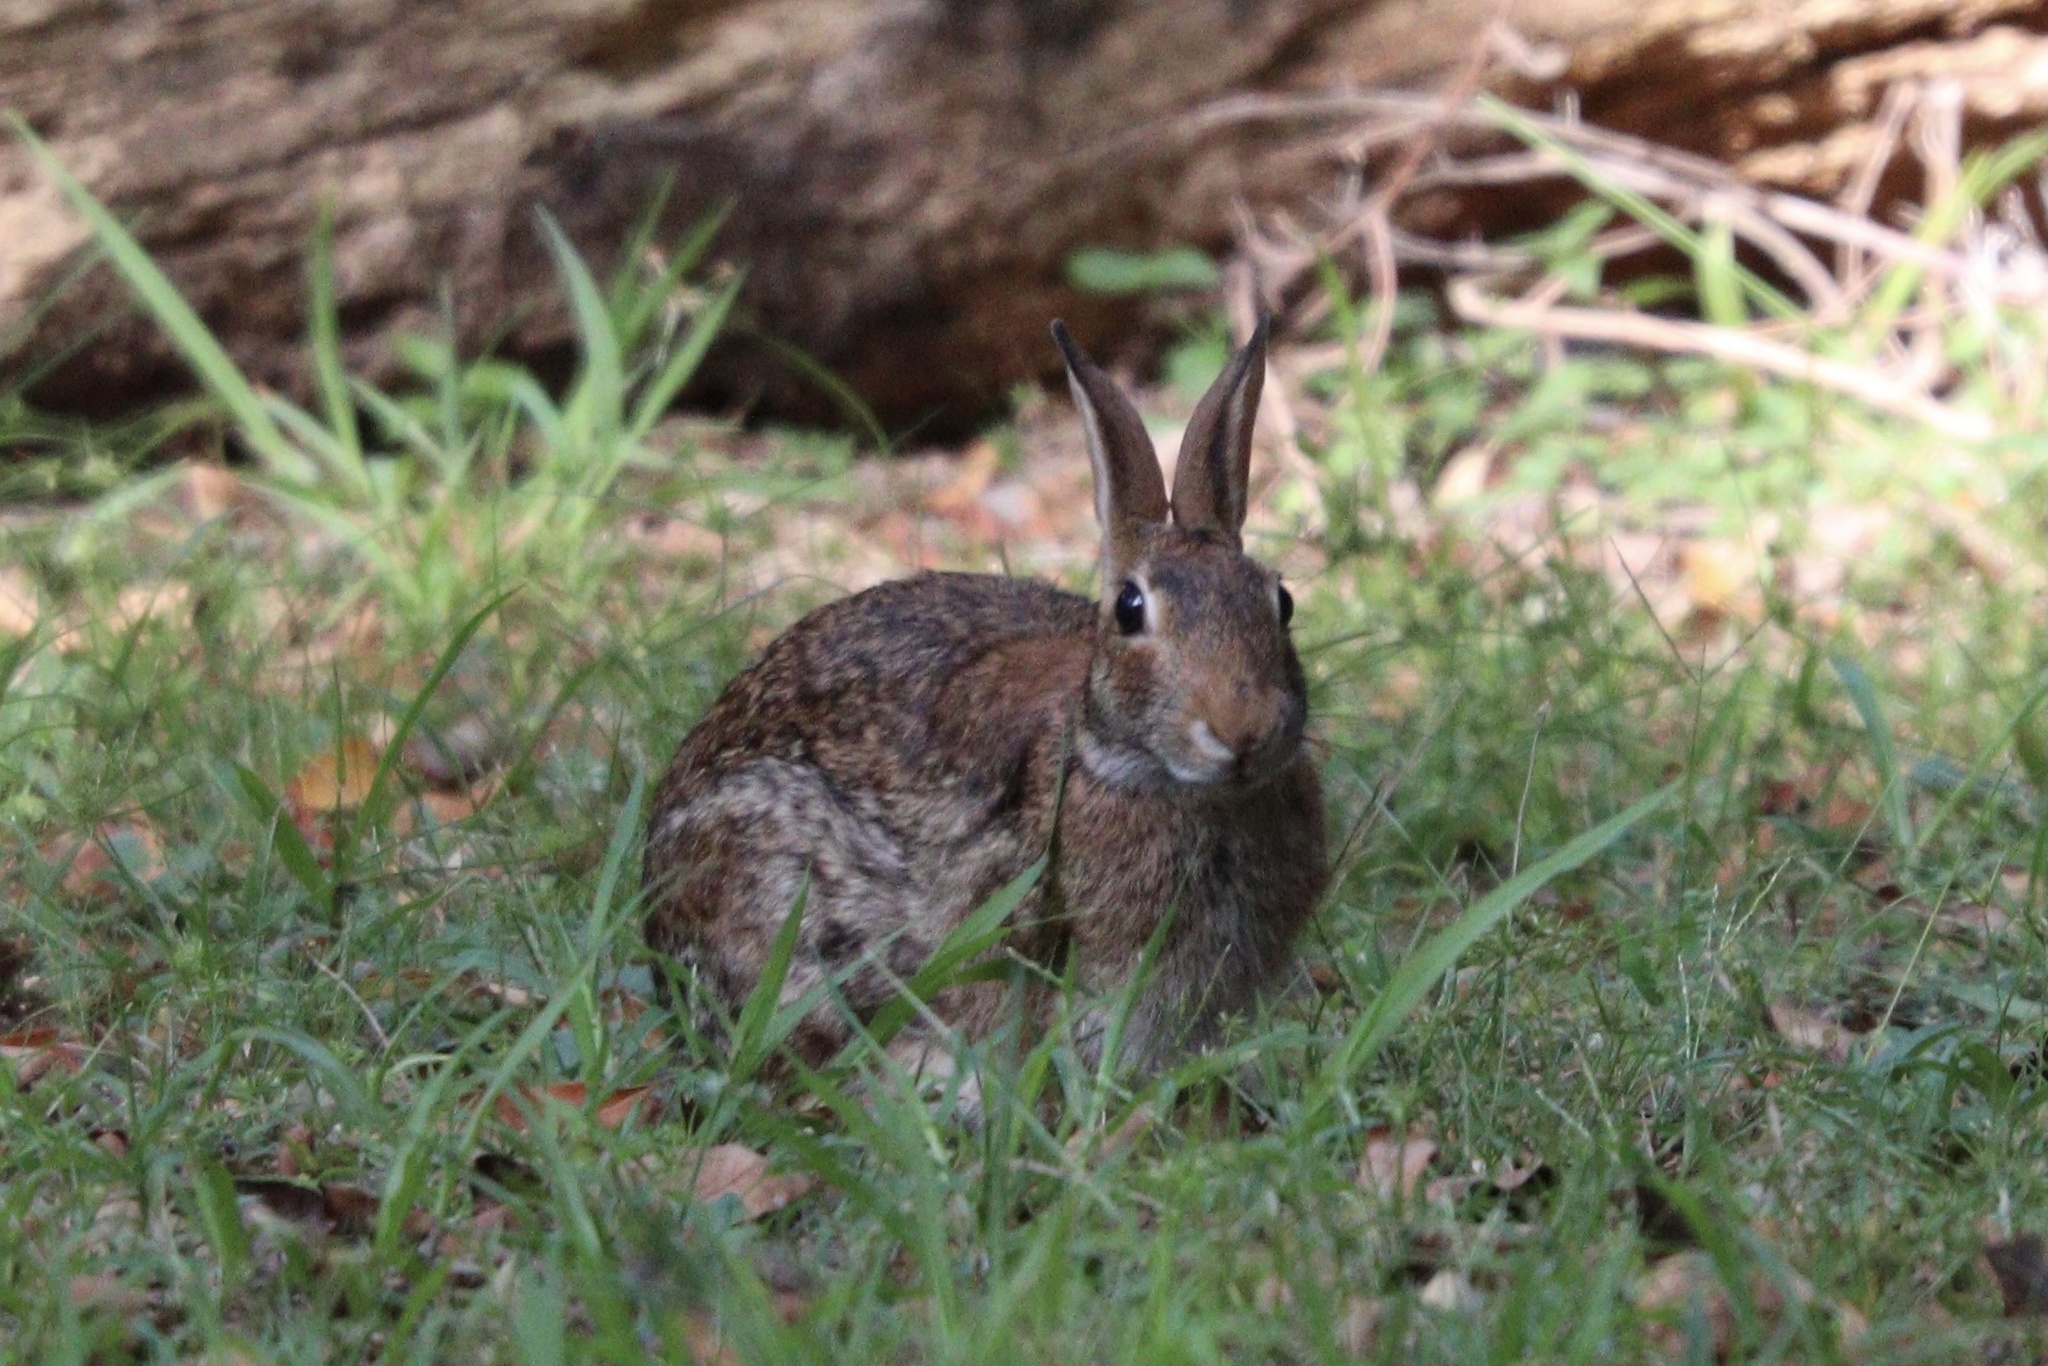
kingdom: Animalia
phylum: Chordata
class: Mammalia
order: Lagomorpha
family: Leporidae
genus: Sylvilagus
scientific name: Sylvilagus floridanus
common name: Eastern cottontail
